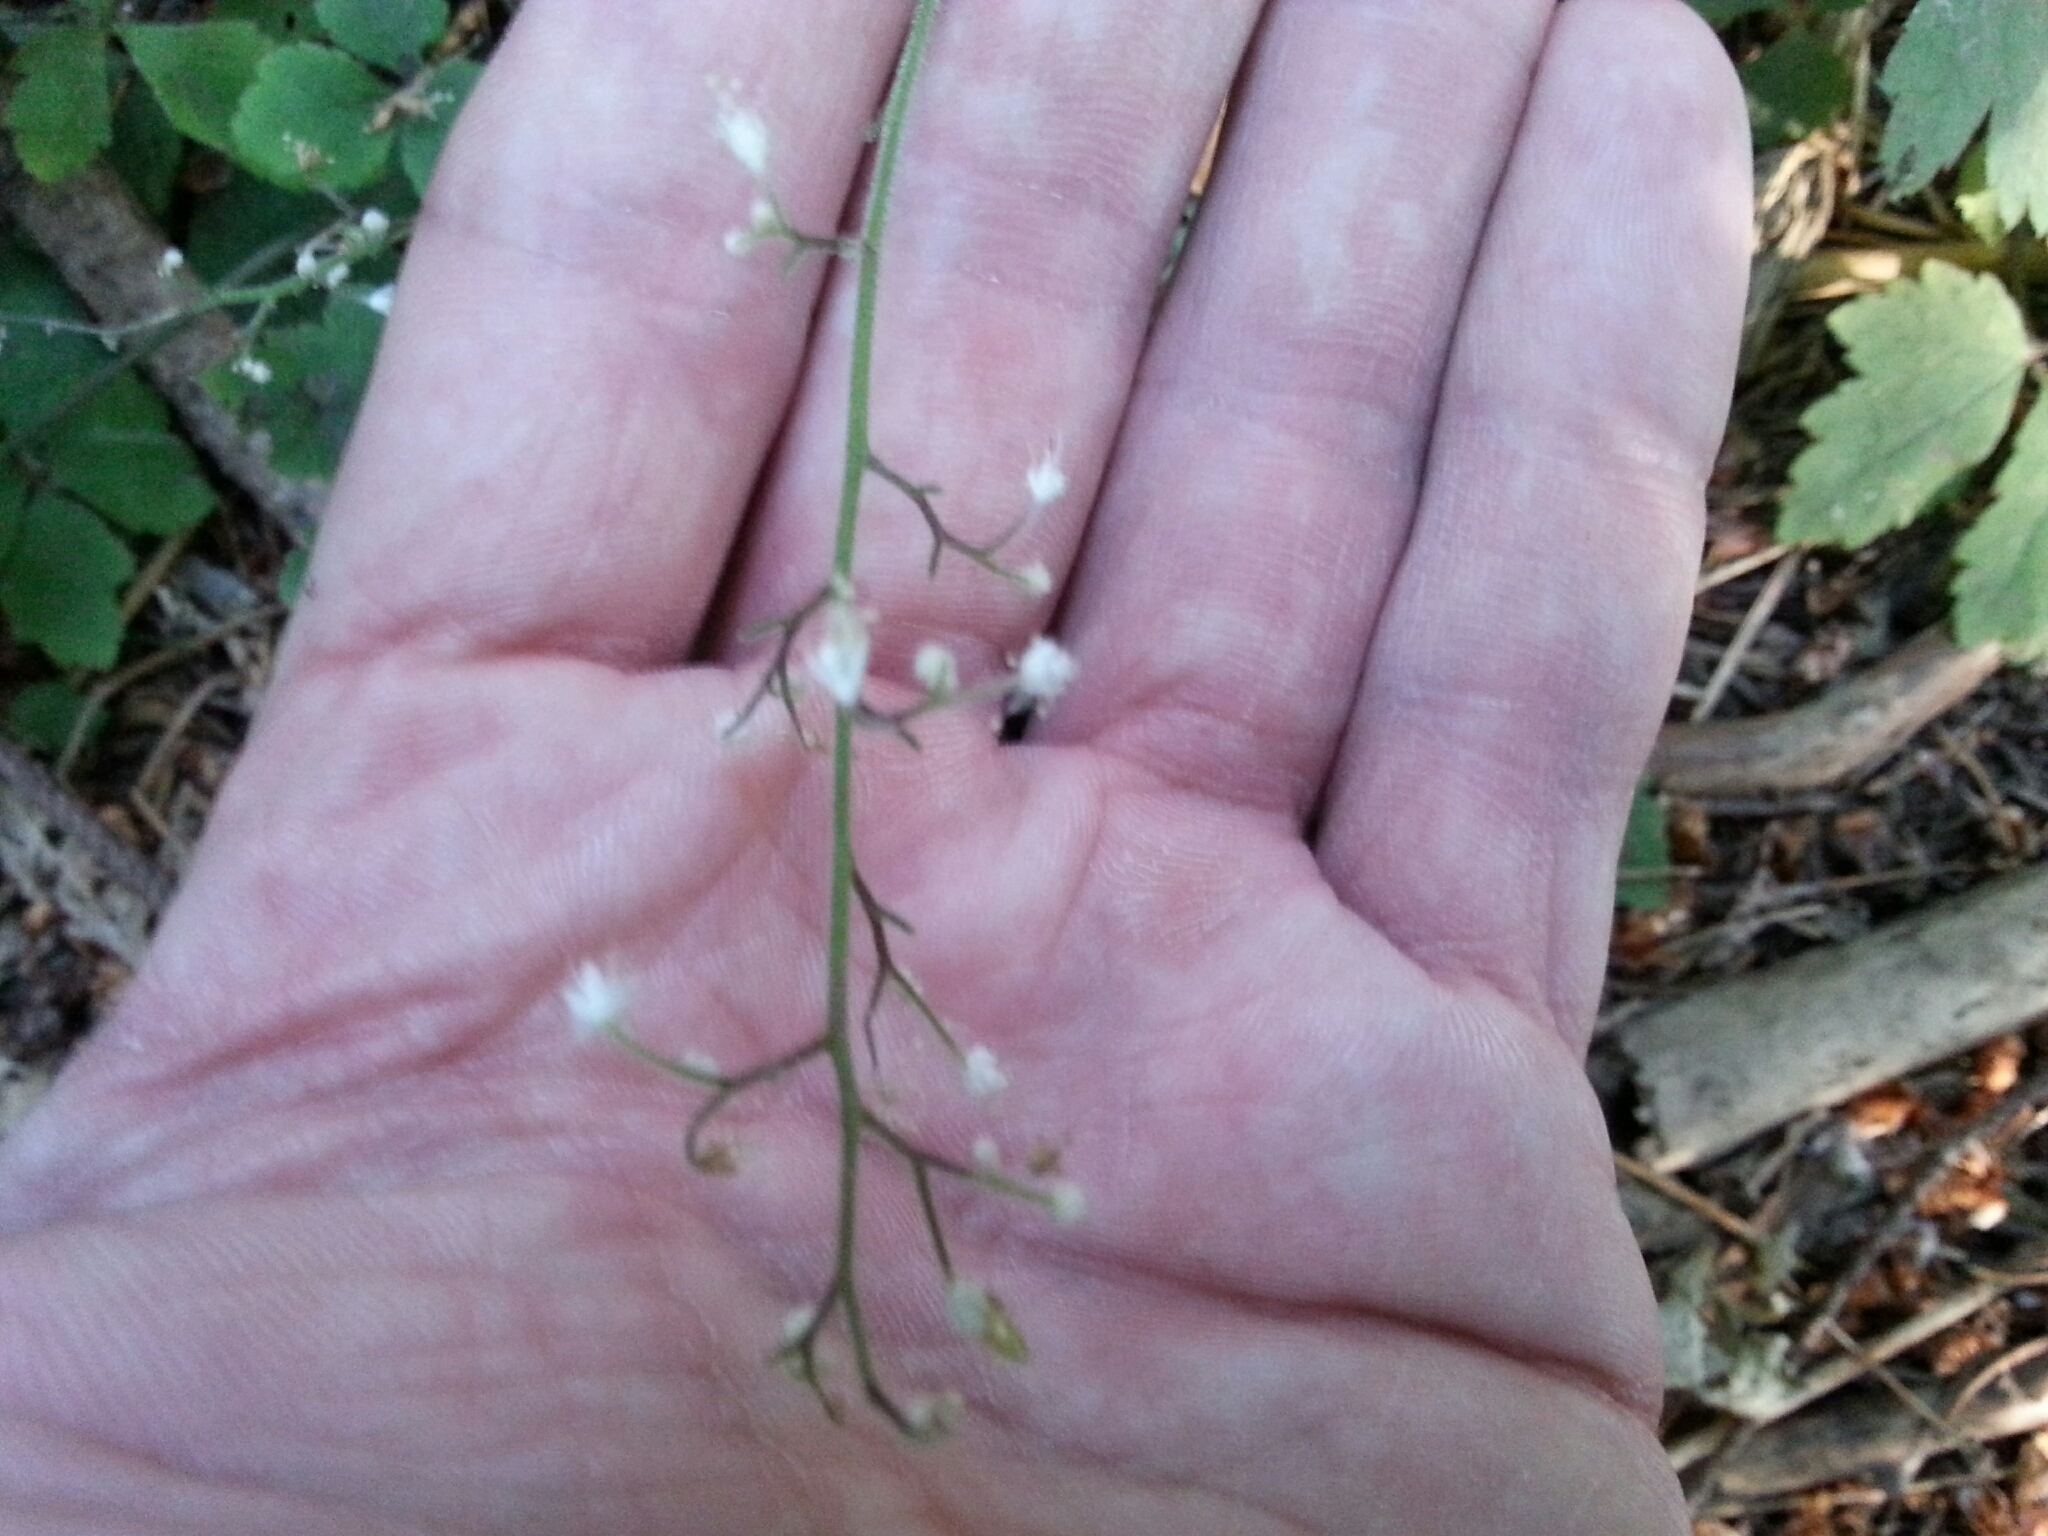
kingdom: Plantae
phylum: Tracheophyta
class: Magnoliopsida
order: Saxifragales
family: Saxifragaceae
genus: Tiarella
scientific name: Tiarella trifoliata
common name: Sugar-scoop
